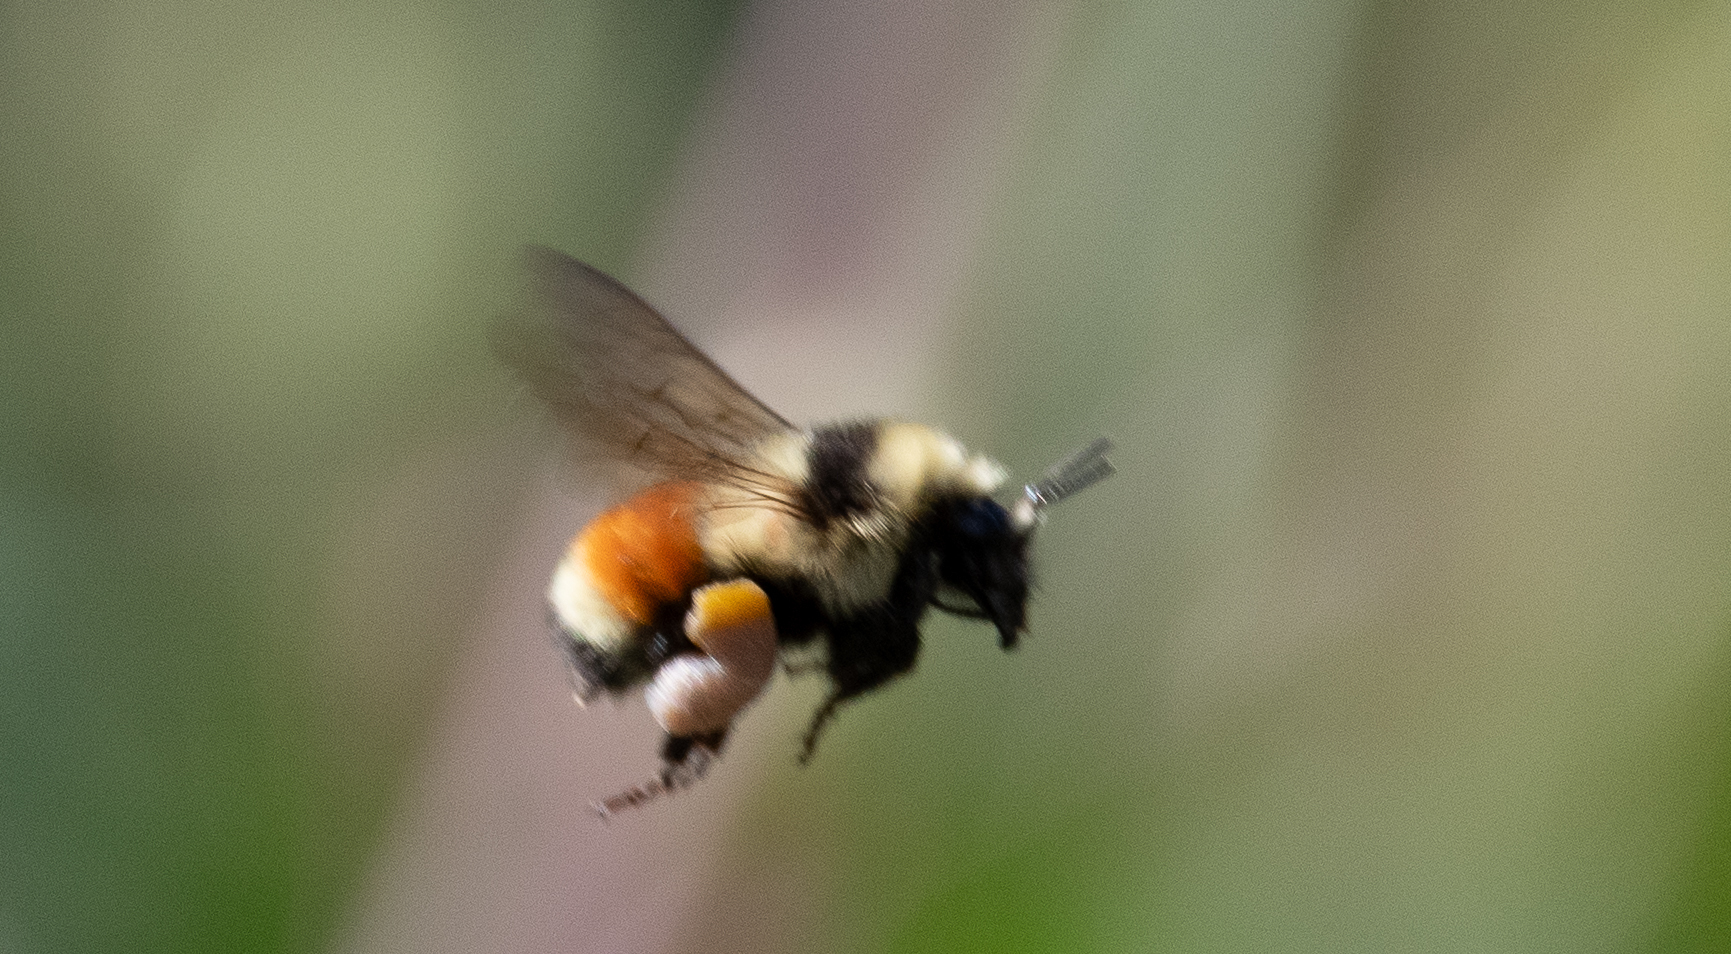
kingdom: Animalia
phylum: Arthropoda
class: Insecta
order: Hymenoptera
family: Apidae
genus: Bombus
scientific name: Bombus huntii
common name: Hunt bumble bee
